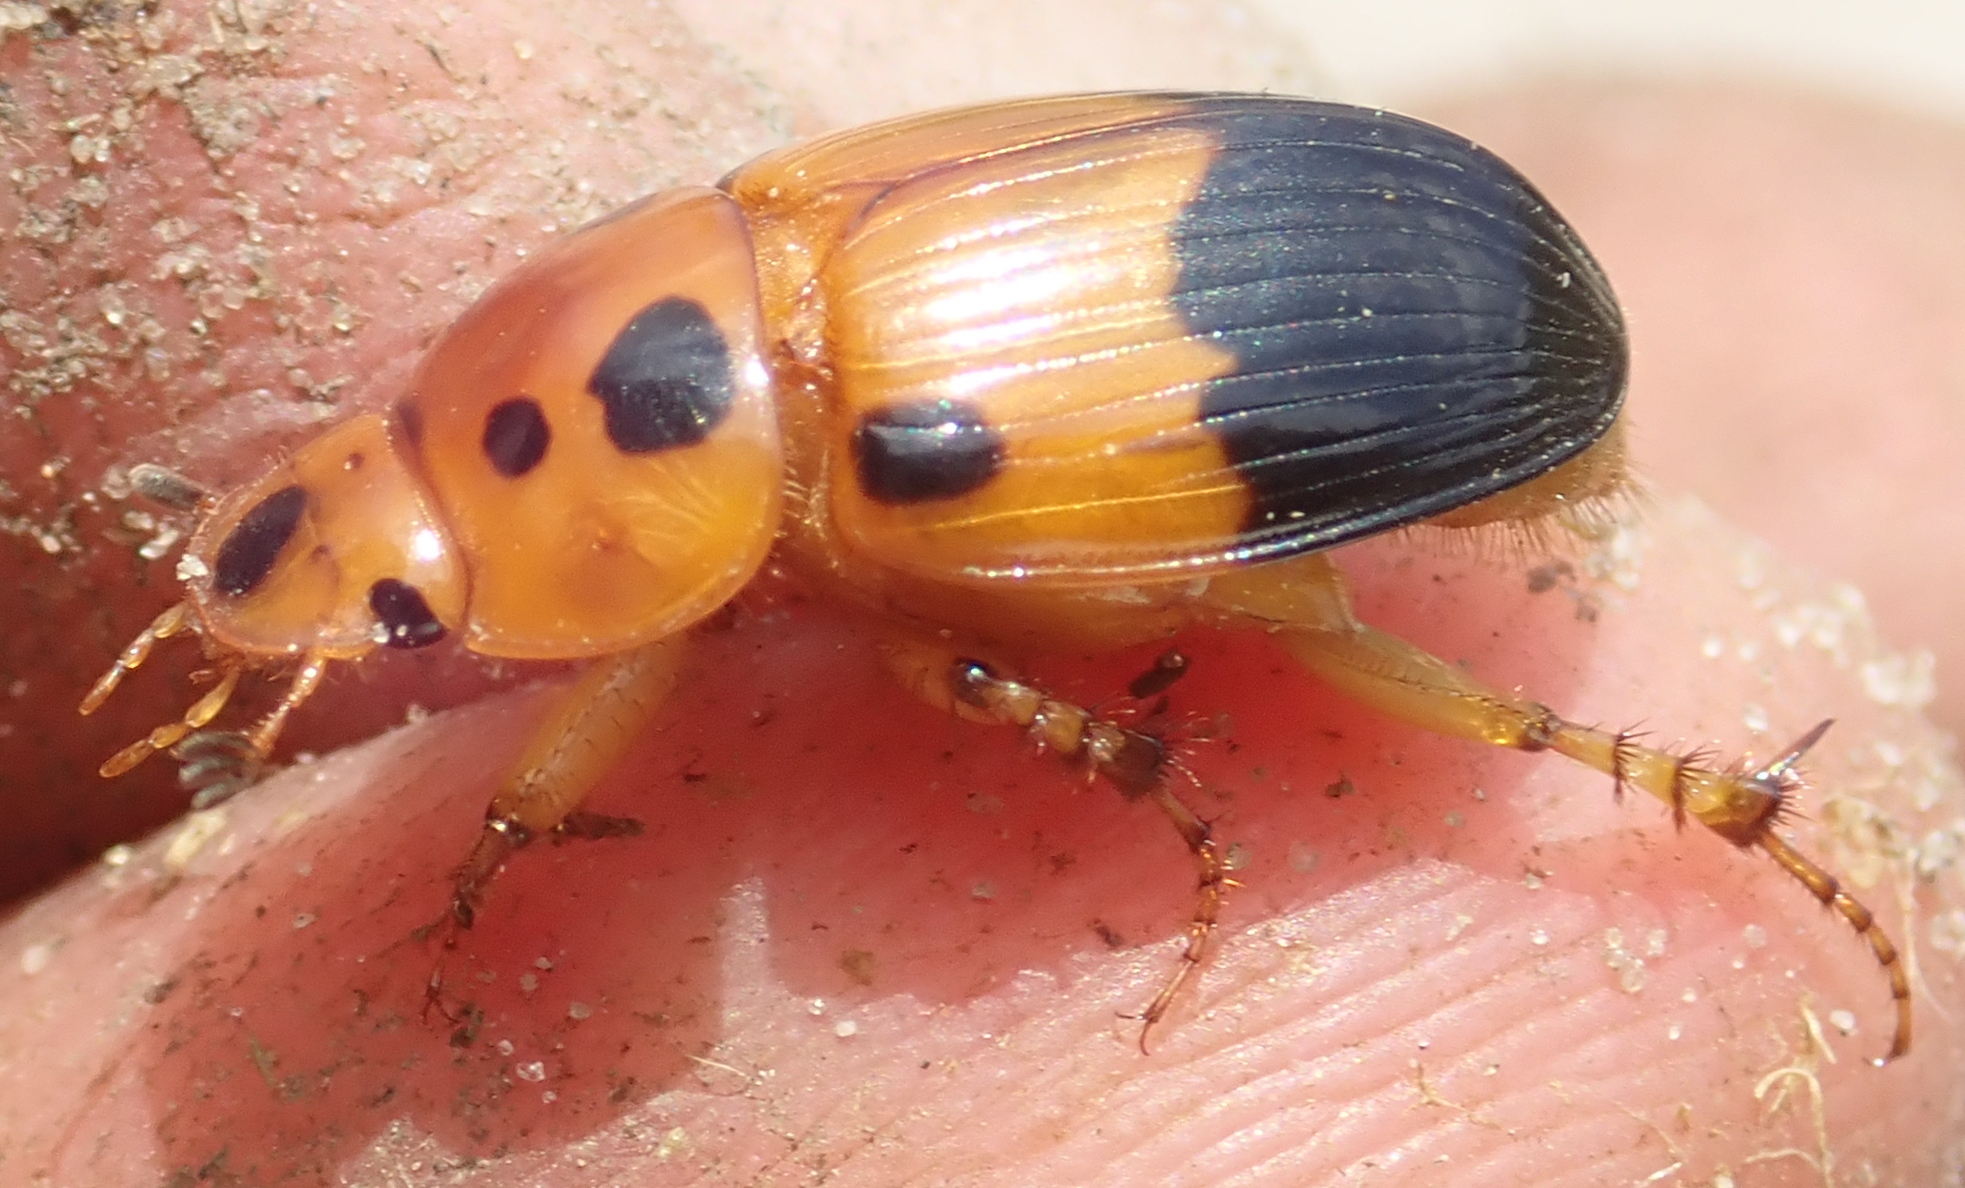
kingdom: Animalia
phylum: Arthropoda
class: Insecta
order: Coleoptera
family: Scarabaeidae
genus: Adeloparius
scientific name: Adeloparius septemmaculatus
